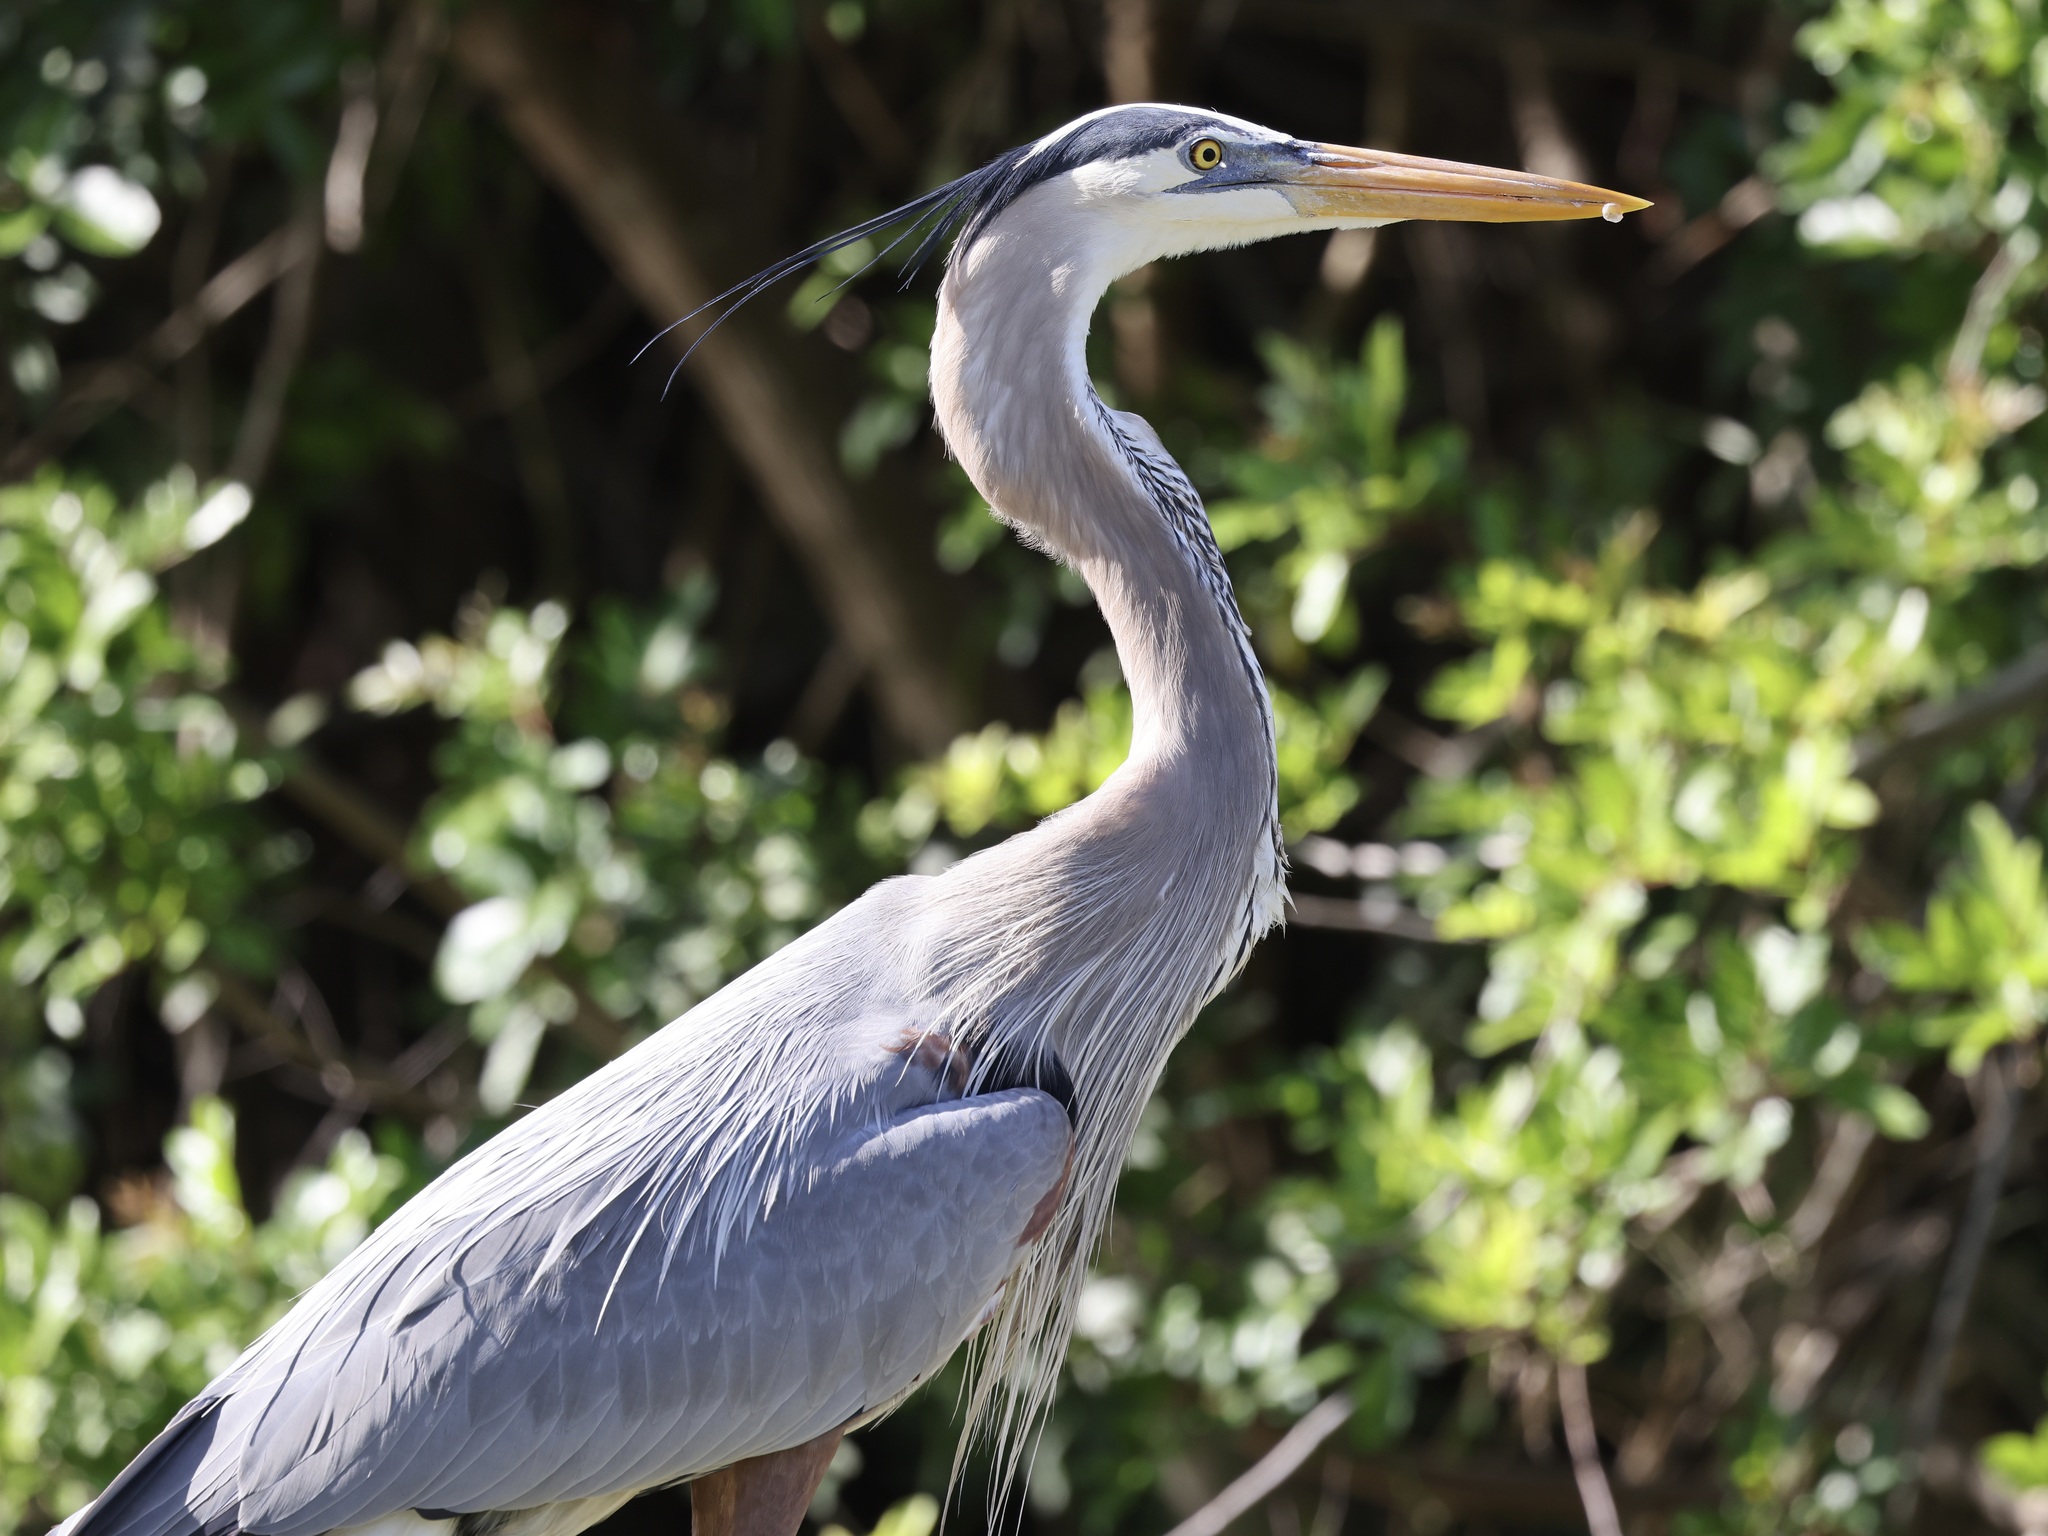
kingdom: Animalia
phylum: Chordata
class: Aves
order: Pelecaniformes
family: Ardeidae
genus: Ardea
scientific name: Ardea herodias
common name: Great blue heron
